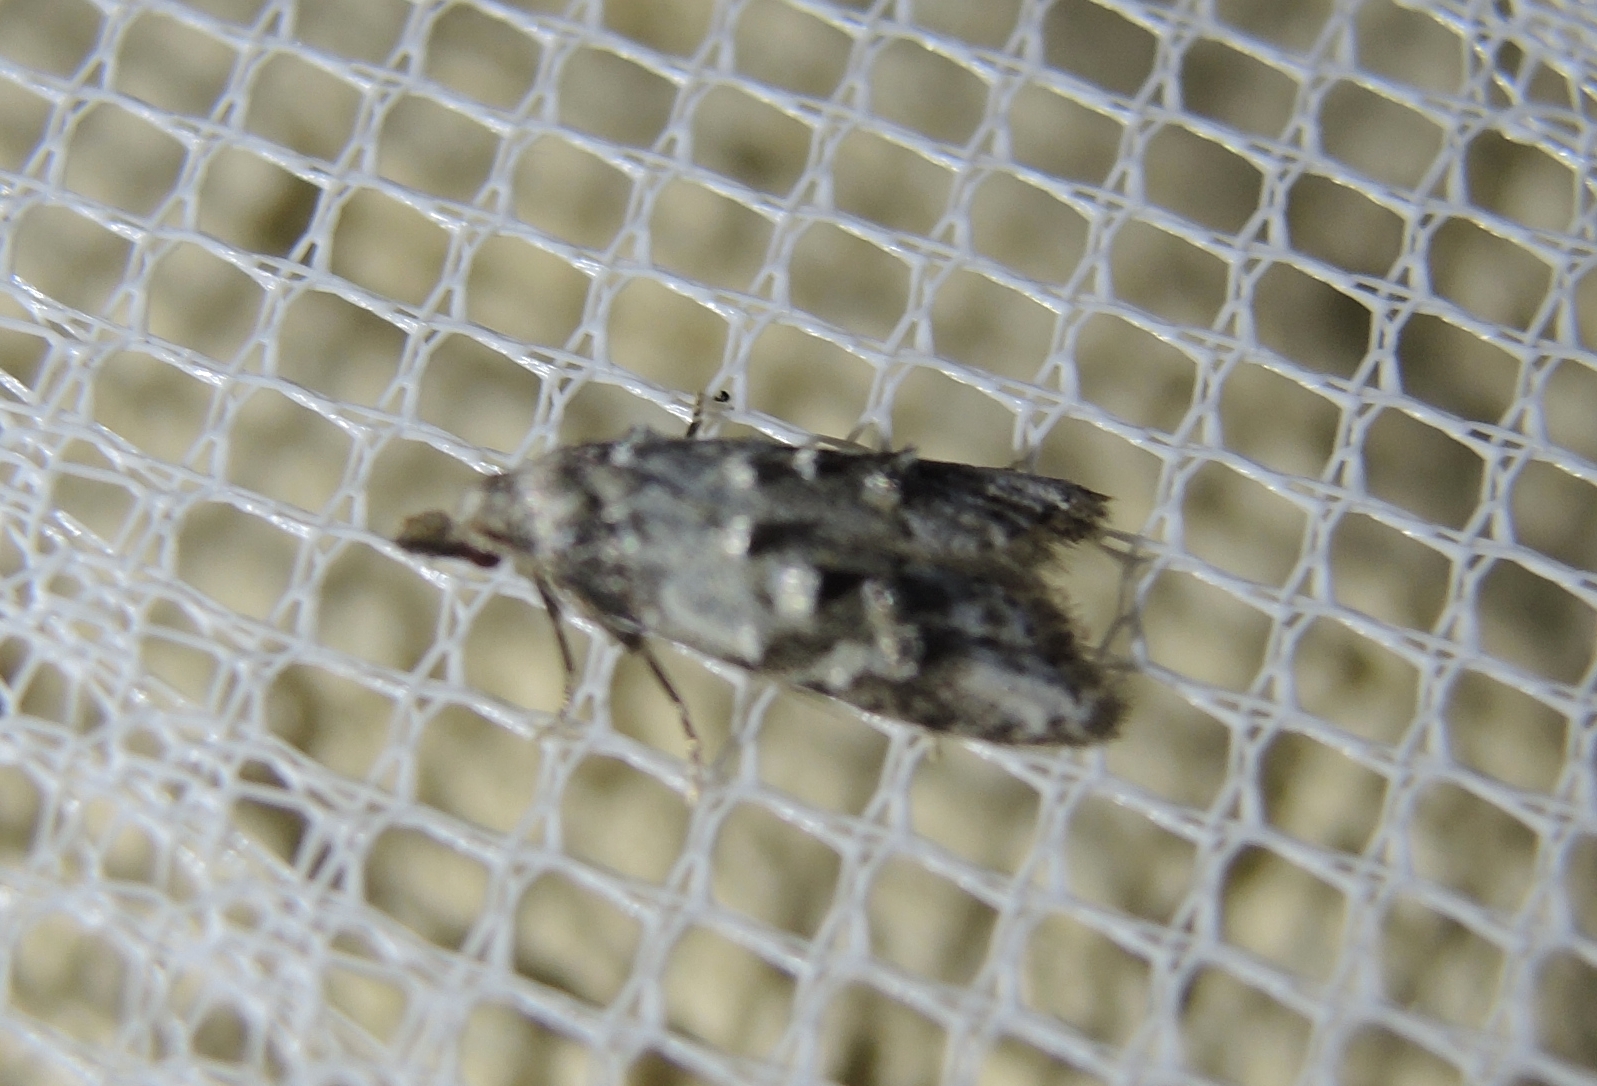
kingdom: Animalia
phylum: Arthropoda
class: Insecta
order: Lepidoptera
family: Carposinidae
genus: Carposina
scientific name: Carposina scirrhosella
